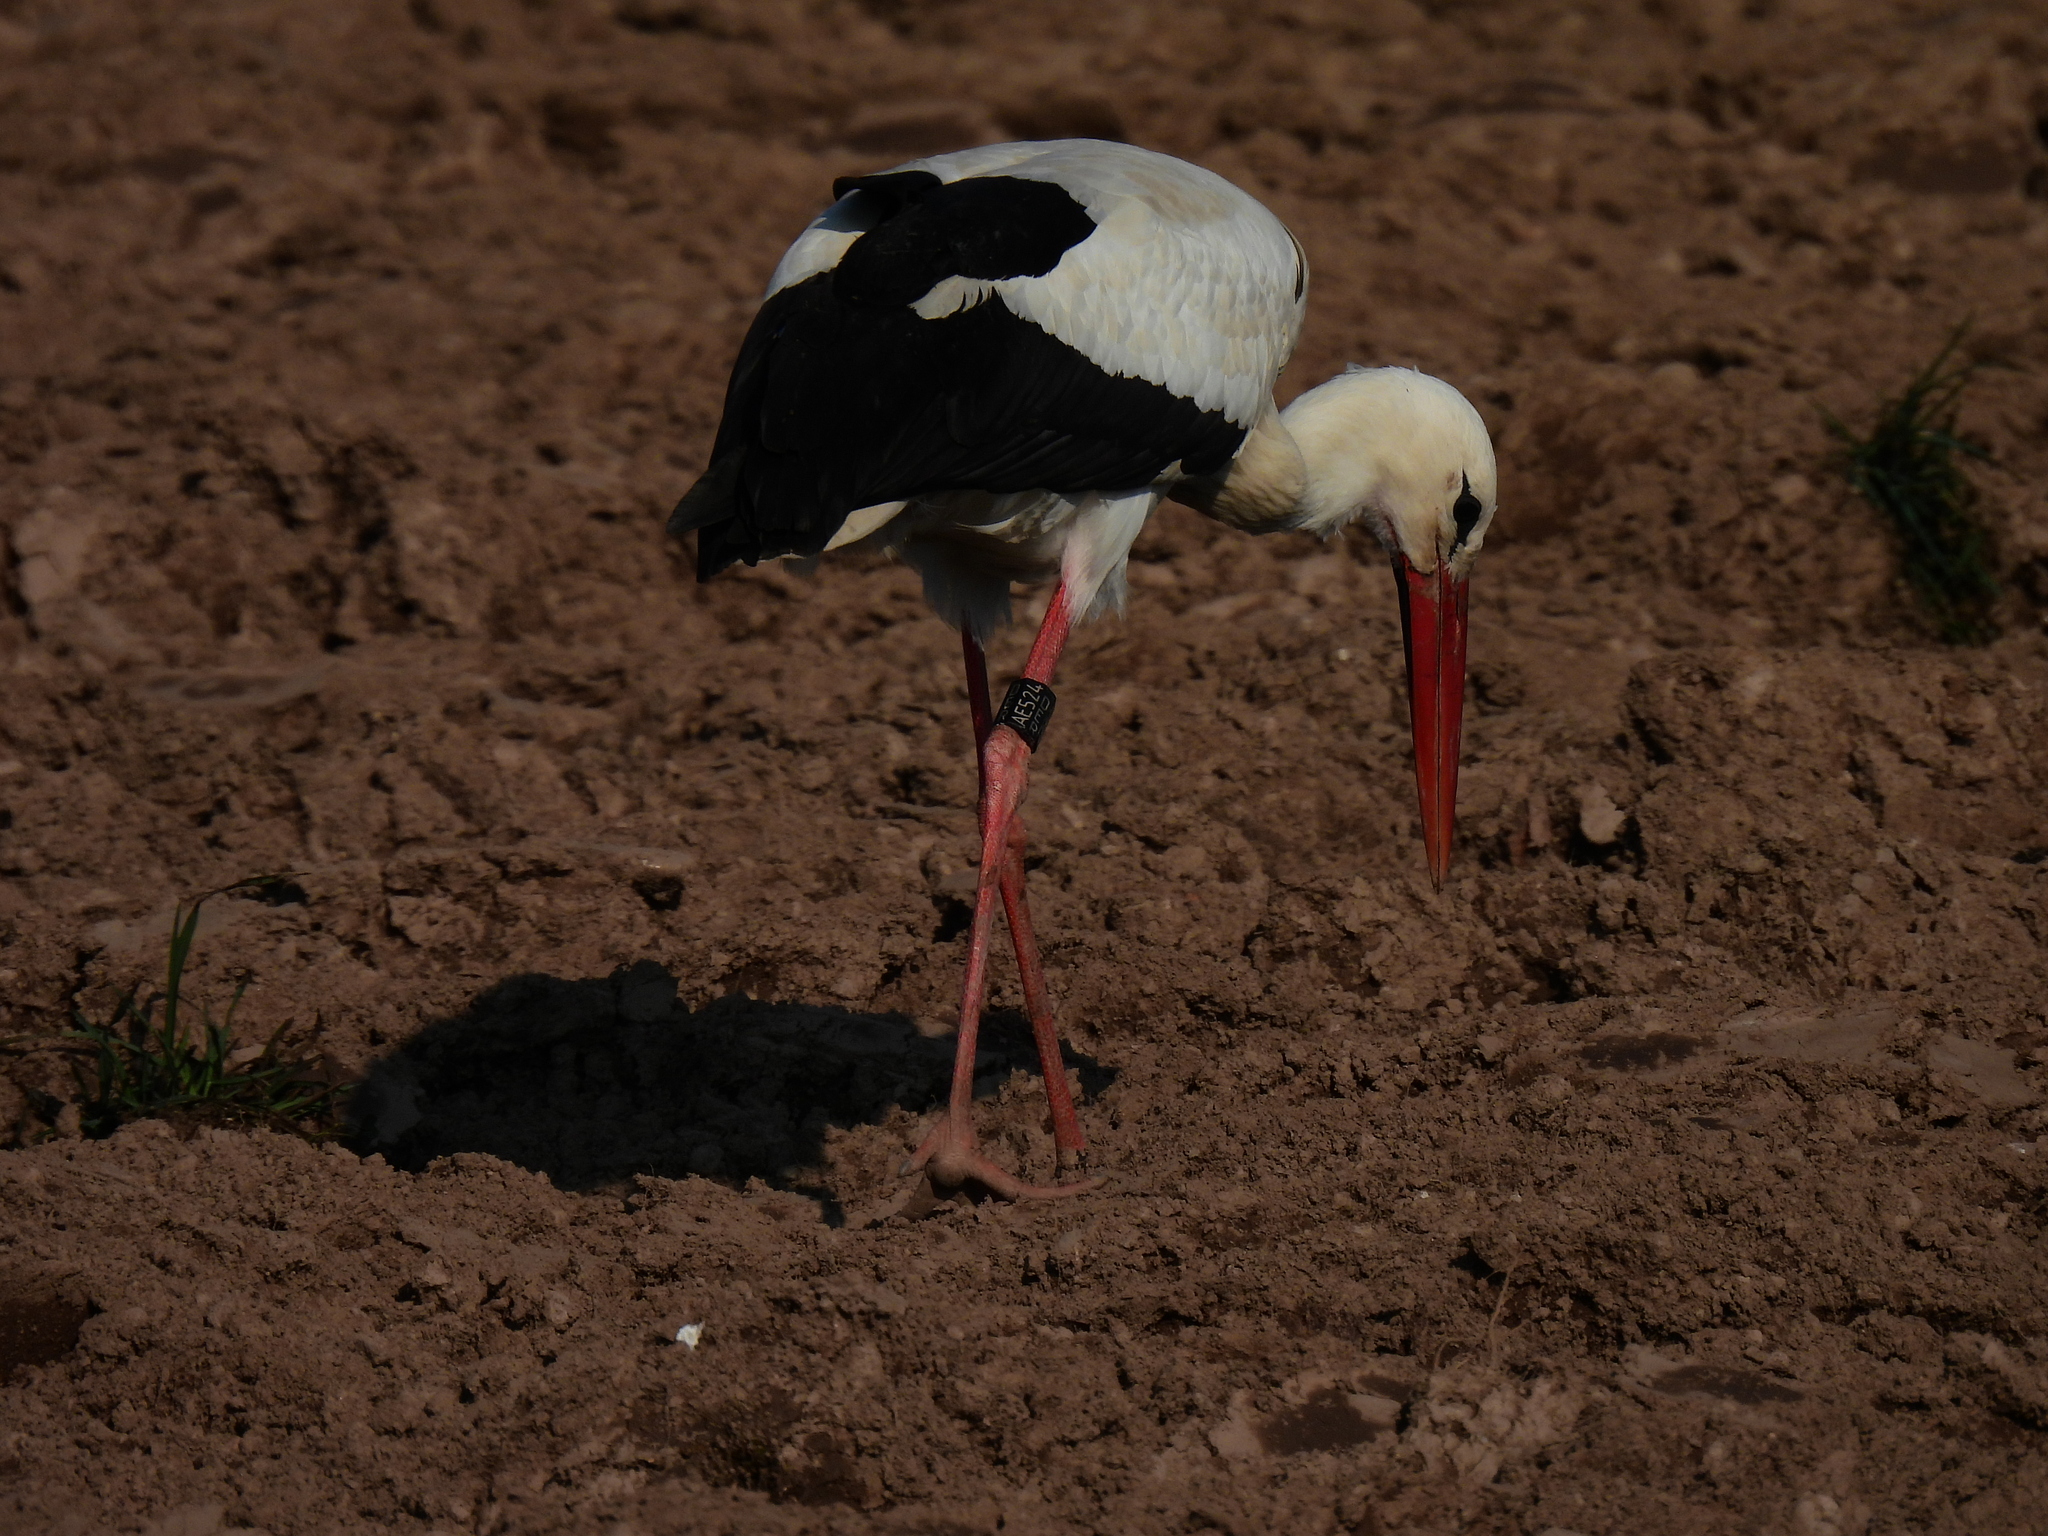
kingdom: Animalia
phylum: Chordata
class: Aves
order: Ciconiiformes
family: Ciconiidae
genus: Ciconia
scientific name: Ciconia ciconia
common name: White stork
